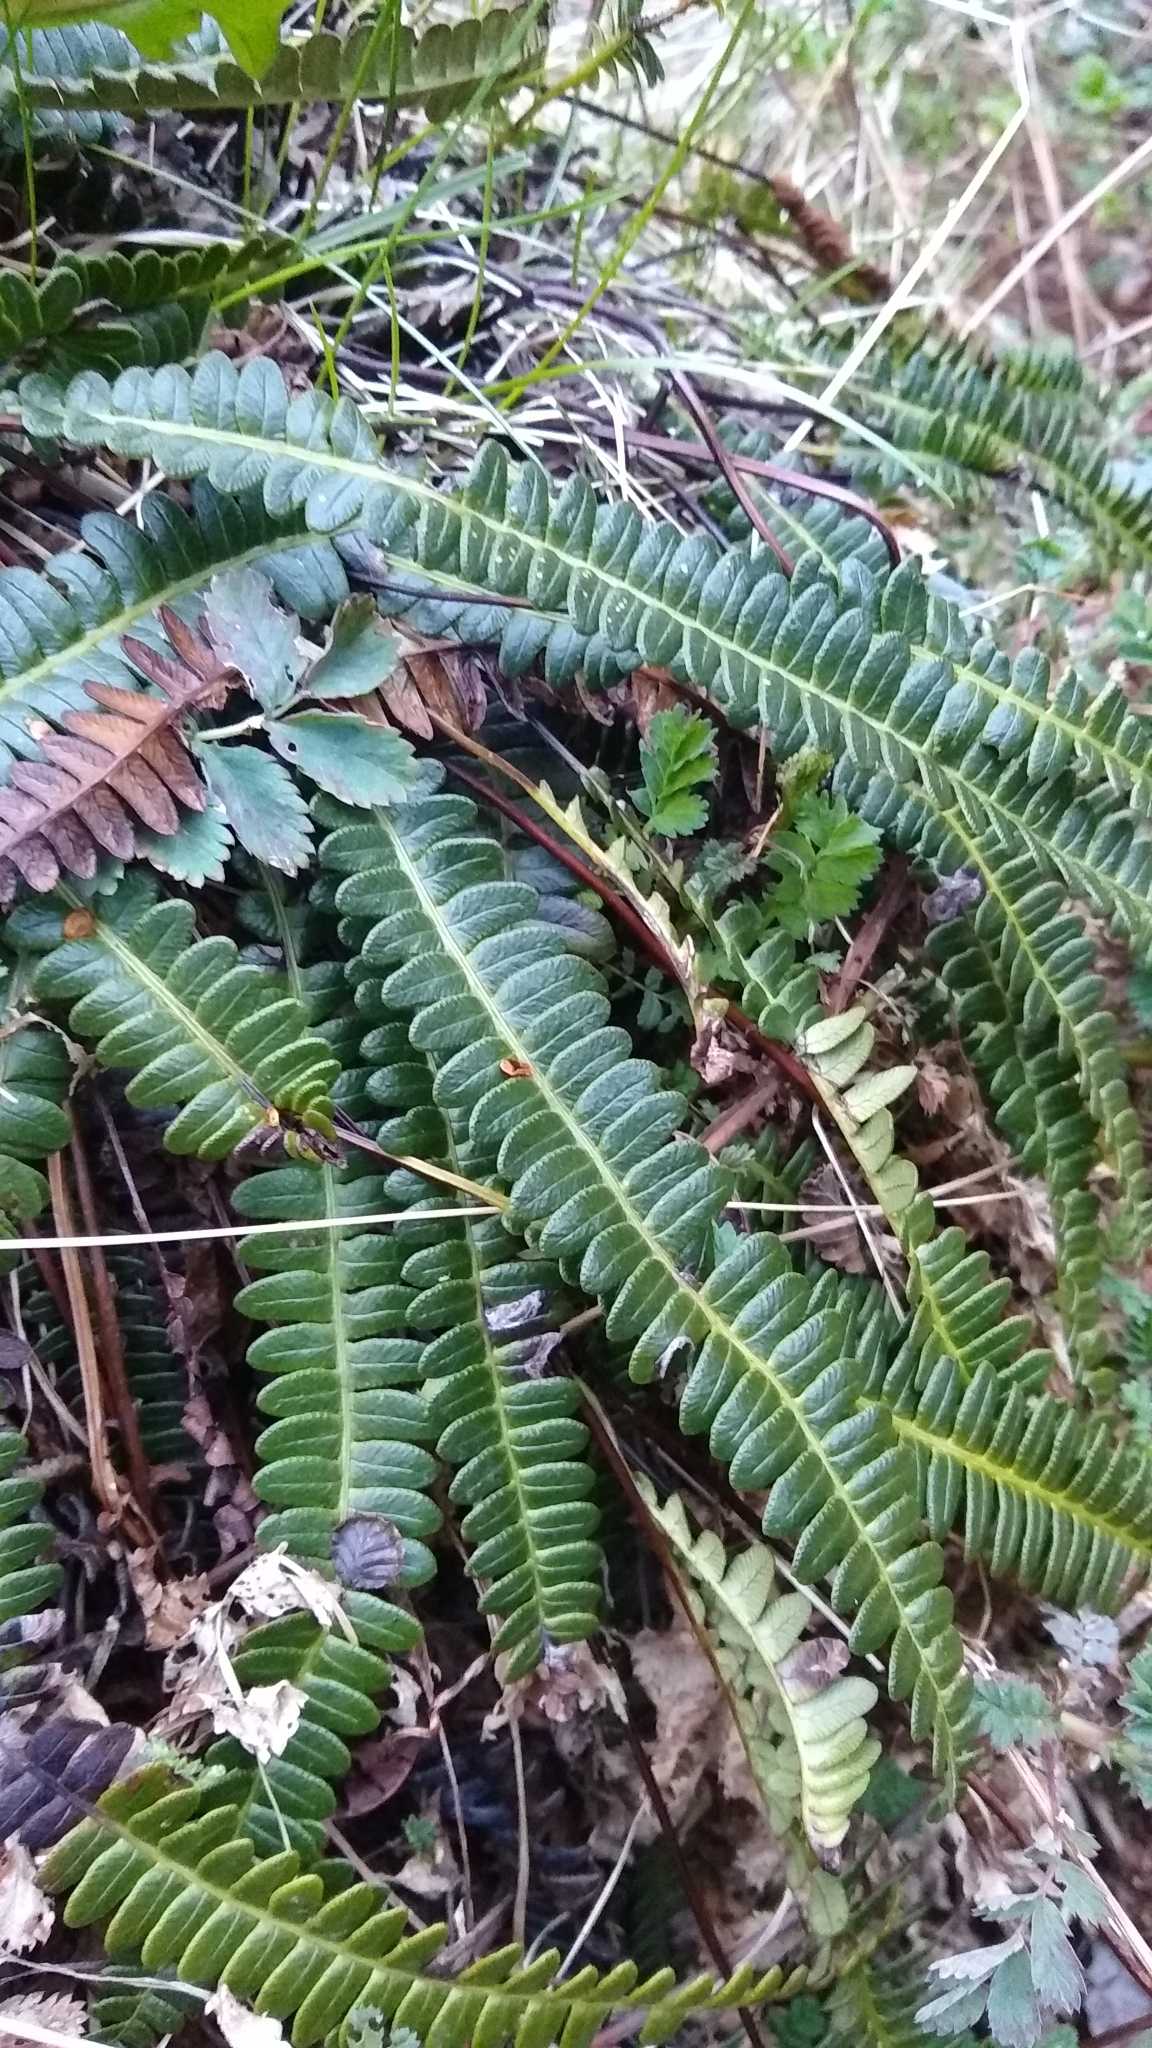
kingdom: Plantae
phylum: Tracheophyta
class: Polypodiopsida
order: Polypodiales
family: Blechnaceae
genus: Austroblechnum
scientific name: Austroblechnum penna-marina
